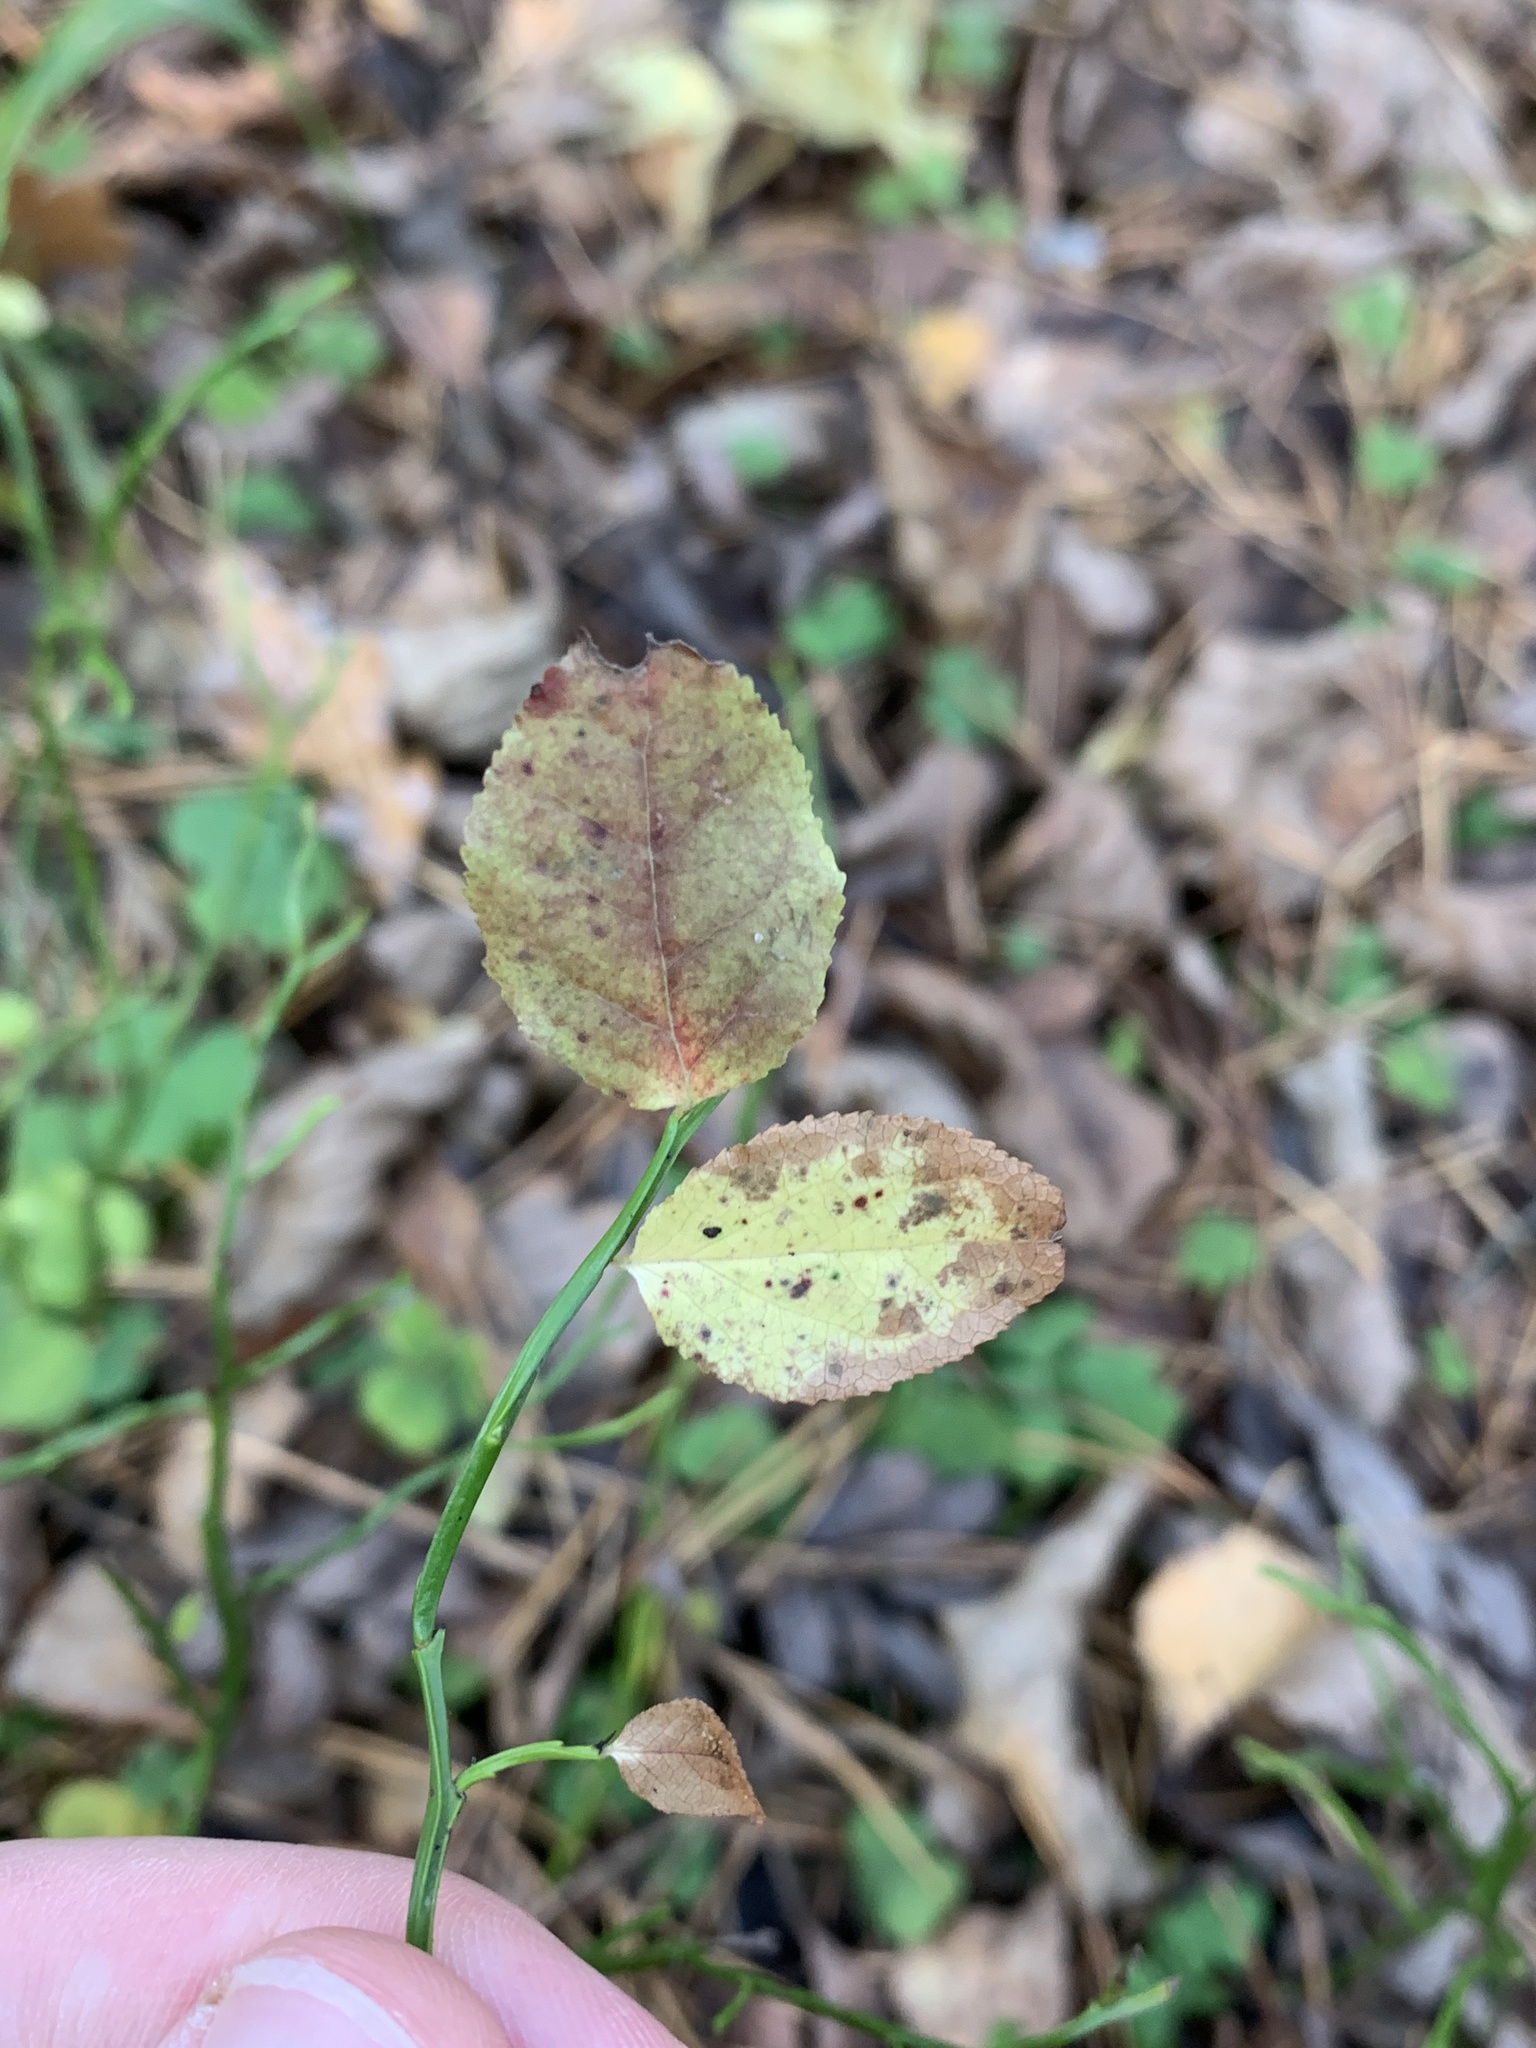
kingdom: Plantae
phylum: Tracheophyta
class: Magnoliopsida
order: Ericales
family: Ericaceae
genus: Vaccinium
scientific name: Vaccinium myrtillus
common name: Bilberry
